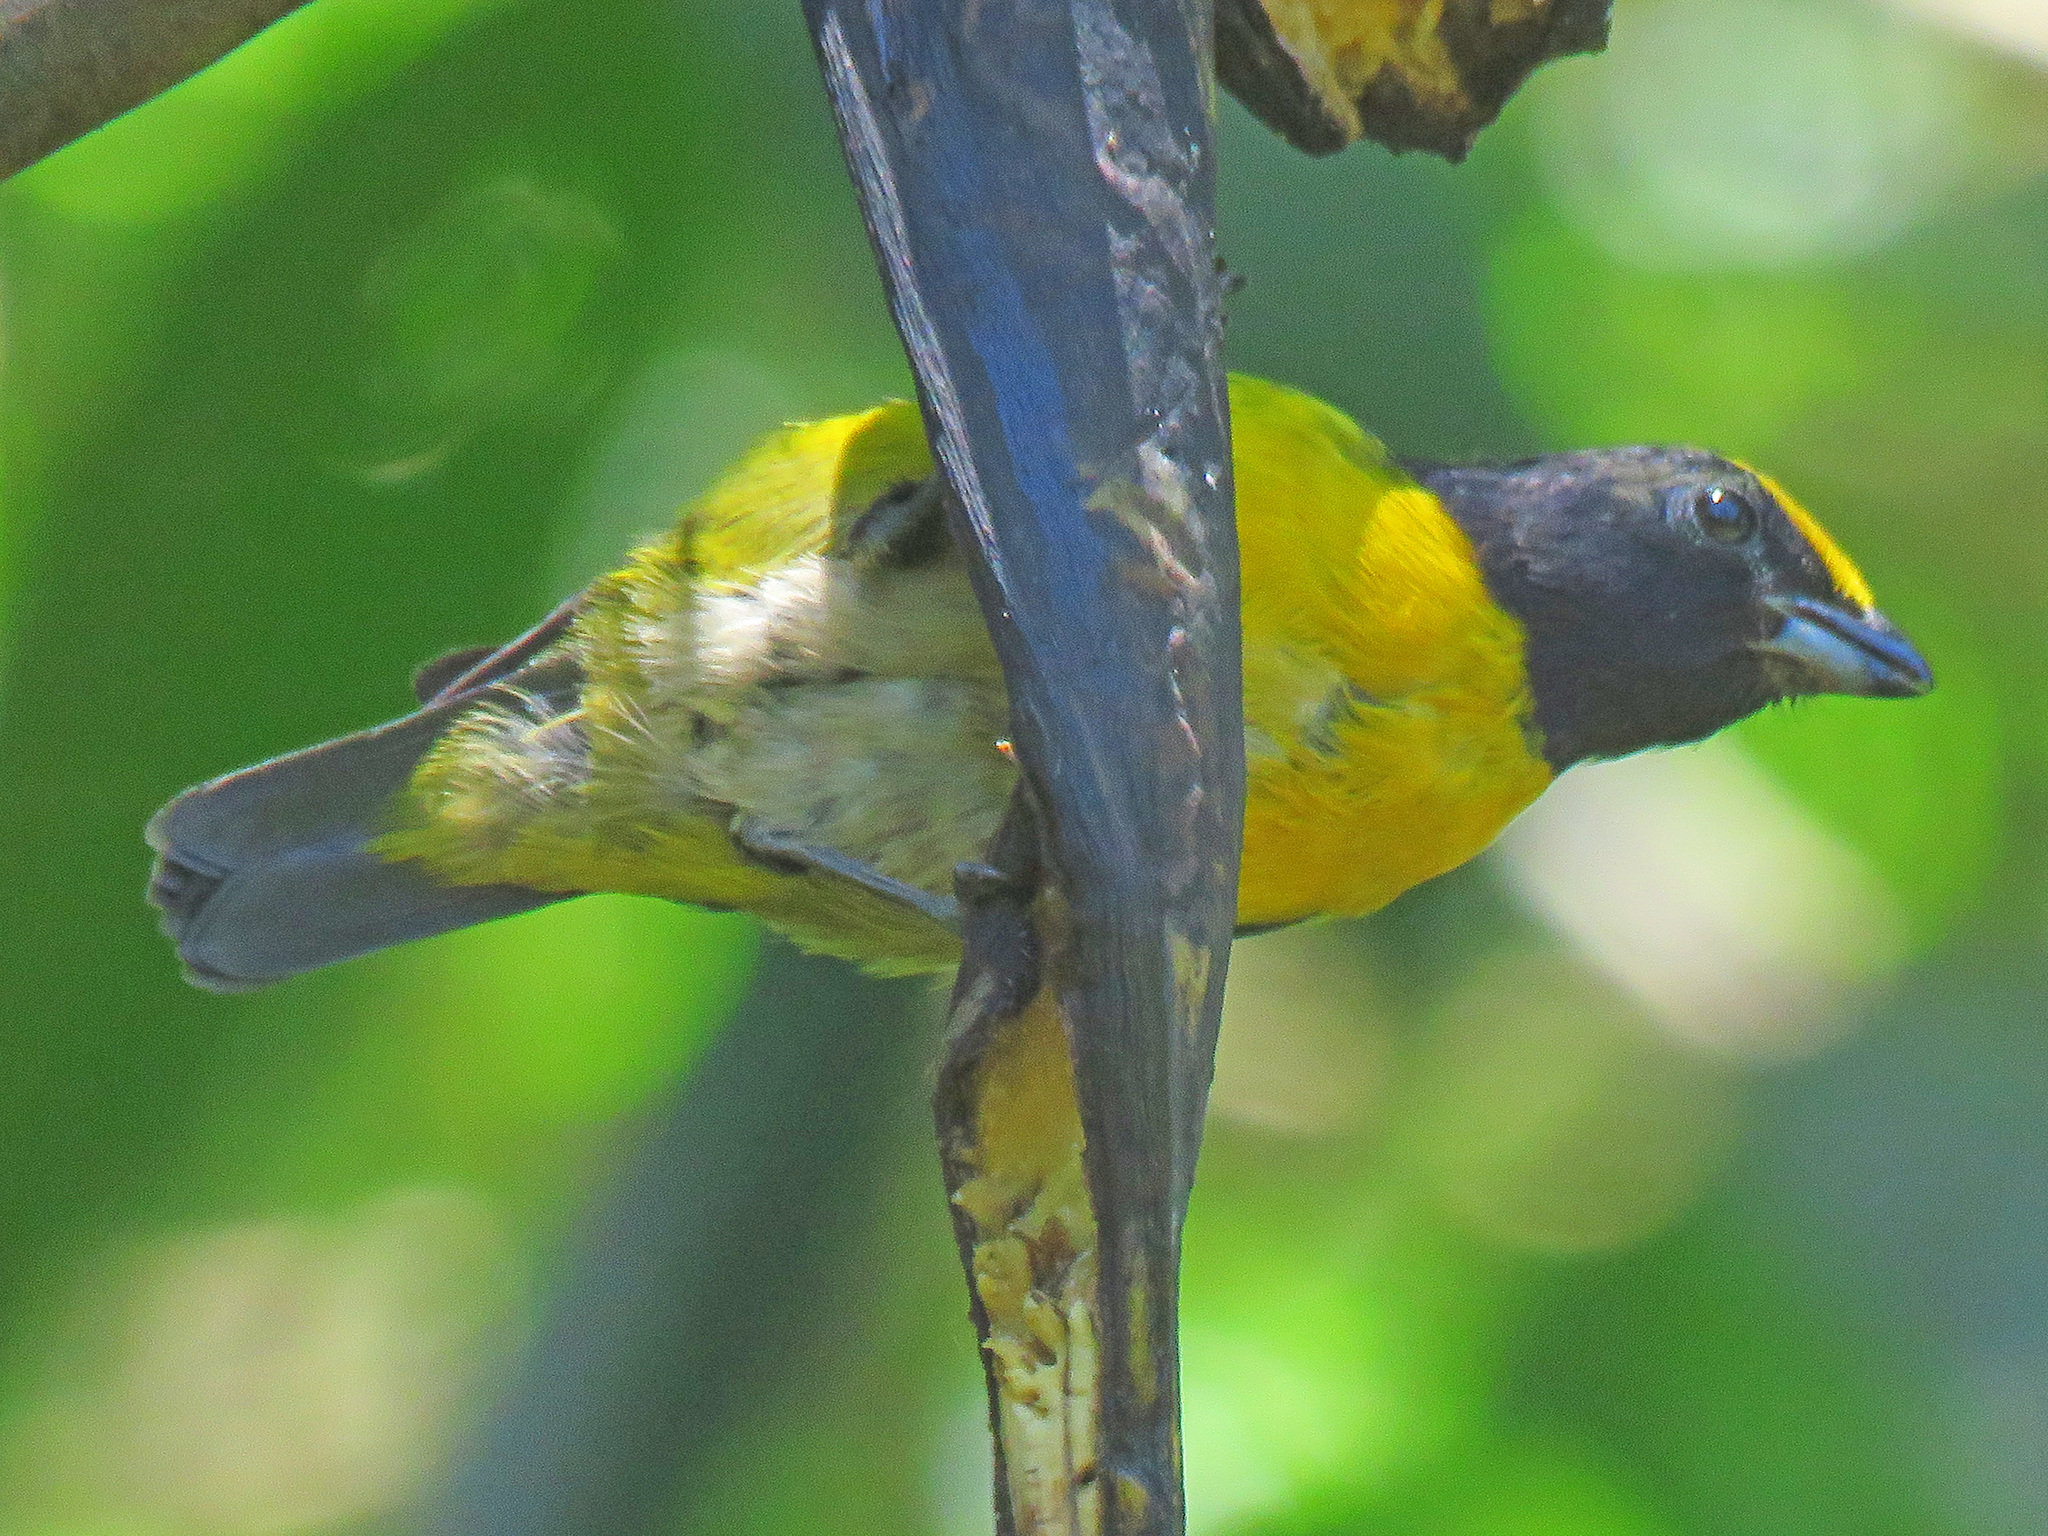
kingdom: Animalia
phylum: Chordata
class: Aves
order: Passeriformes
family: Fringillidae
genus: Euphonia
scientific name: Euphonia saturata
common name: Orange-crowned euphonia
